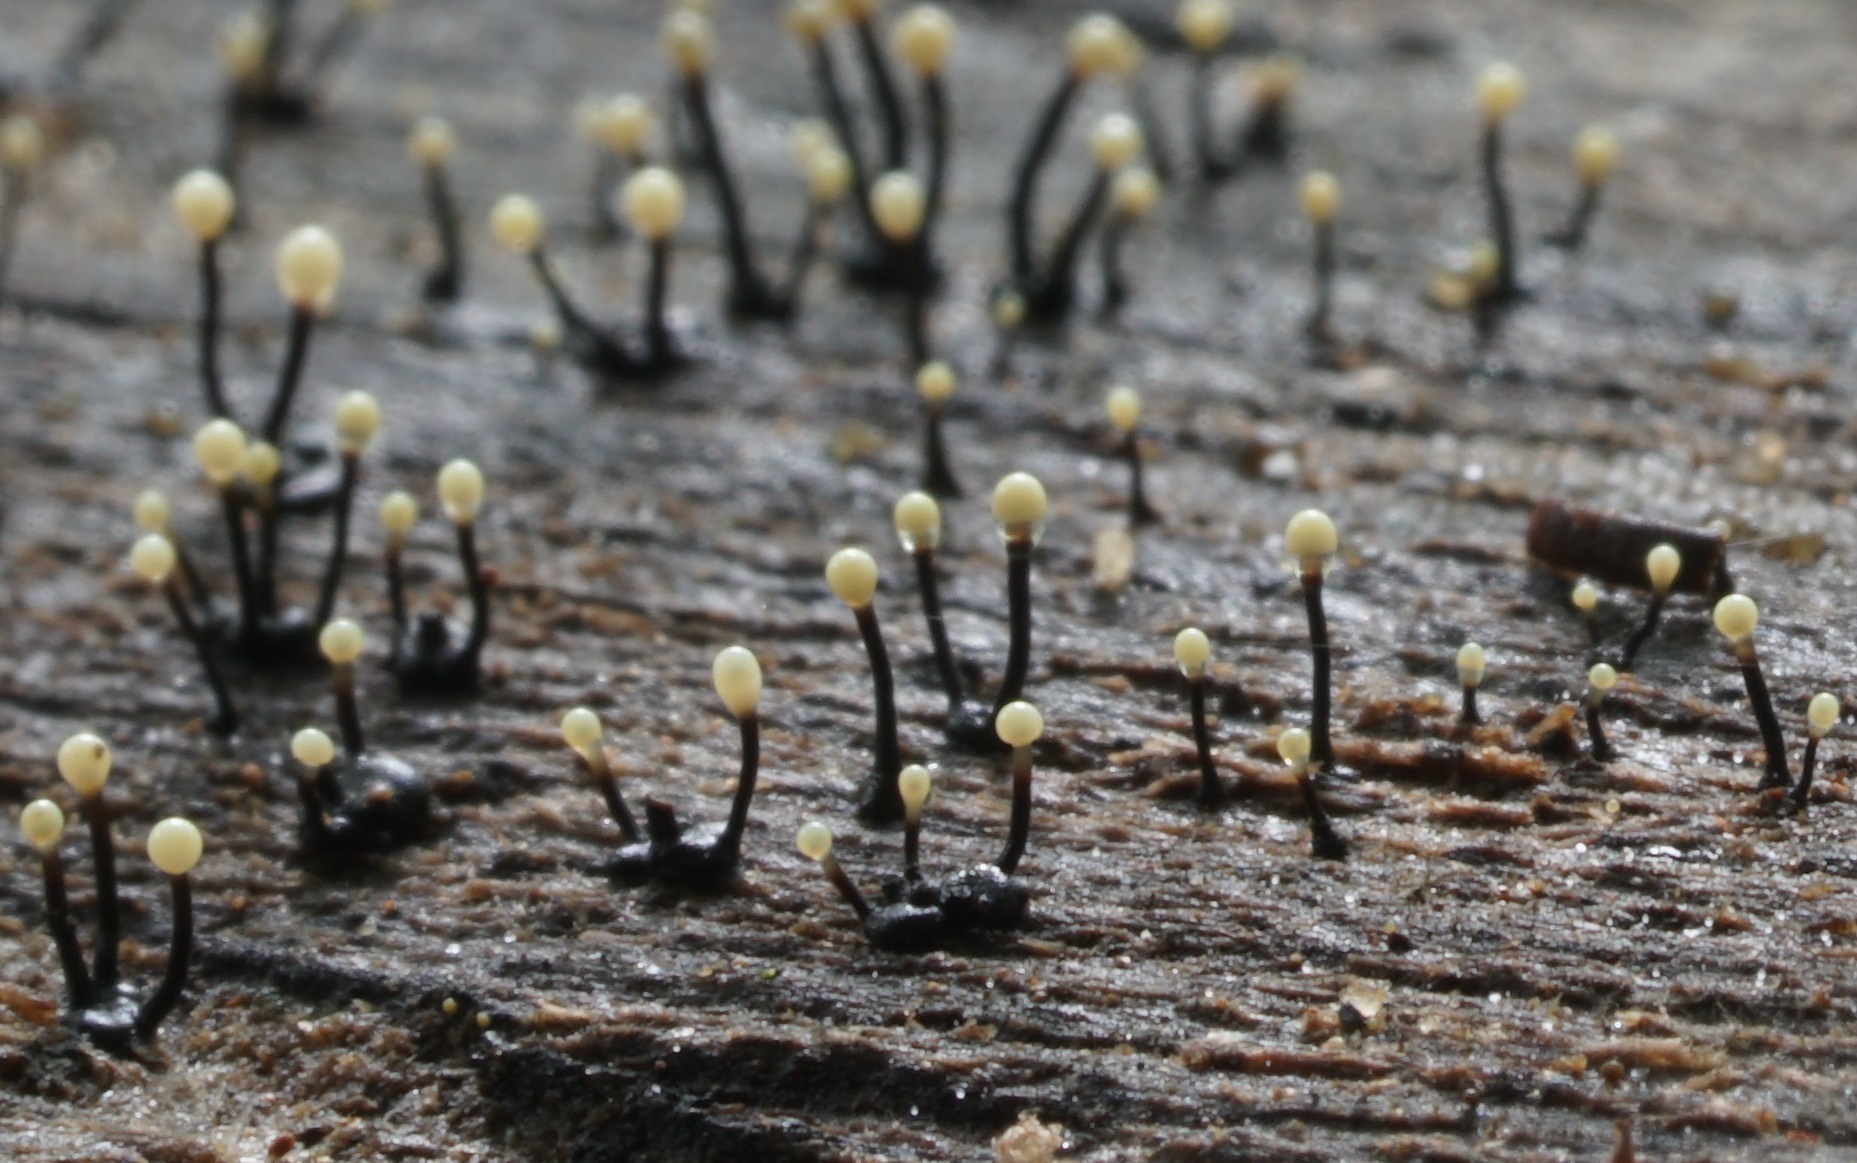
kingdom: Fungi
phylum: Ascomycota
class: Sordariomycetes
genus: Stromatographium
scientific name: Stromatographium stromaticum
